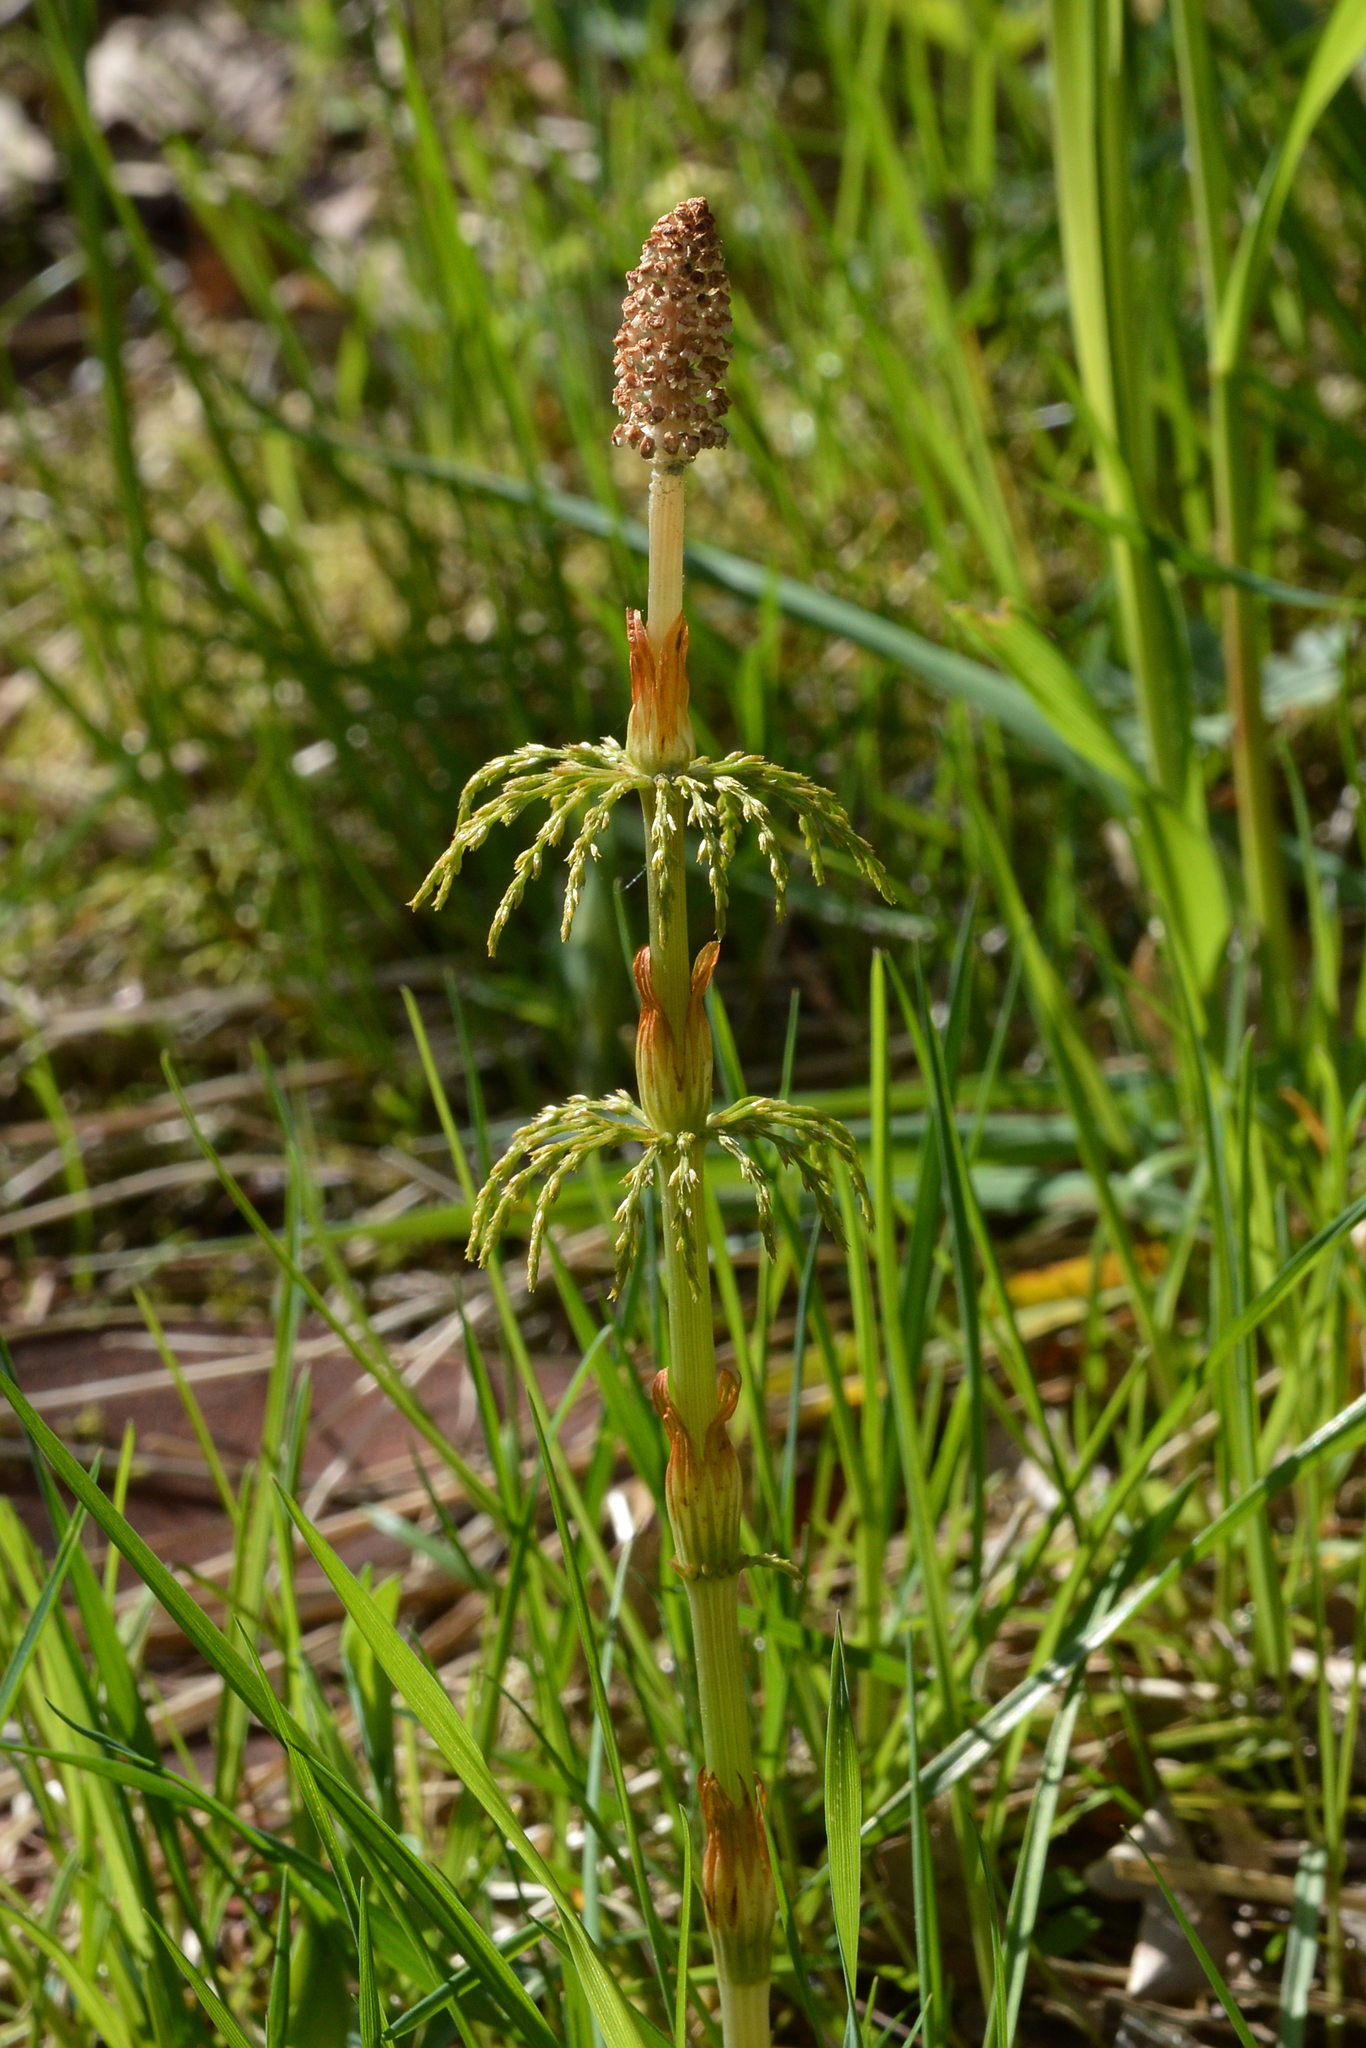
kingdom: Plantae
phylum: Tracheophyta
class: Polypodiopsida
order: Equisetales
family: Equisetaceae
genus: Equisetum
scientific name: Equisetum sylvaticum
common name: Wood horsetail
